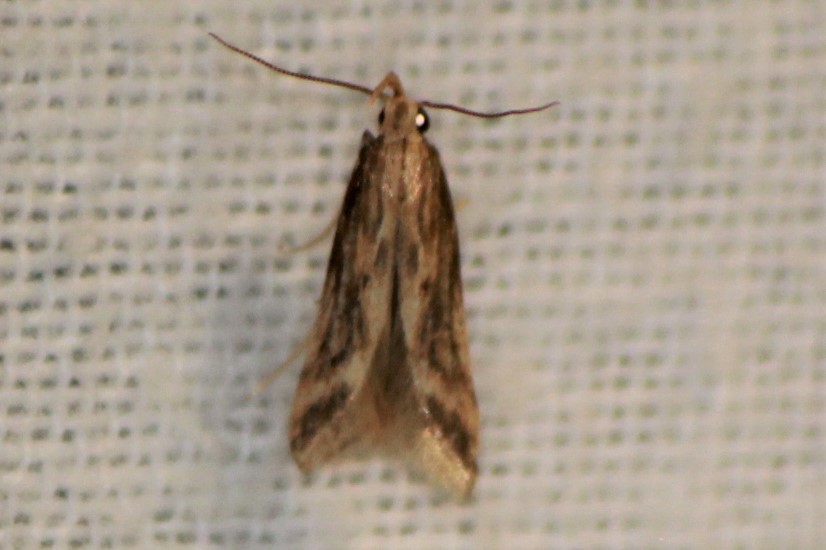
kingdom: Animalia
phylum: Arthropoda
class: Insecta
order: Lepidoptera
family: Gelechiidae
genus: Metzneria
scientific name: Metzneria lappella
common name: Burdock neb
